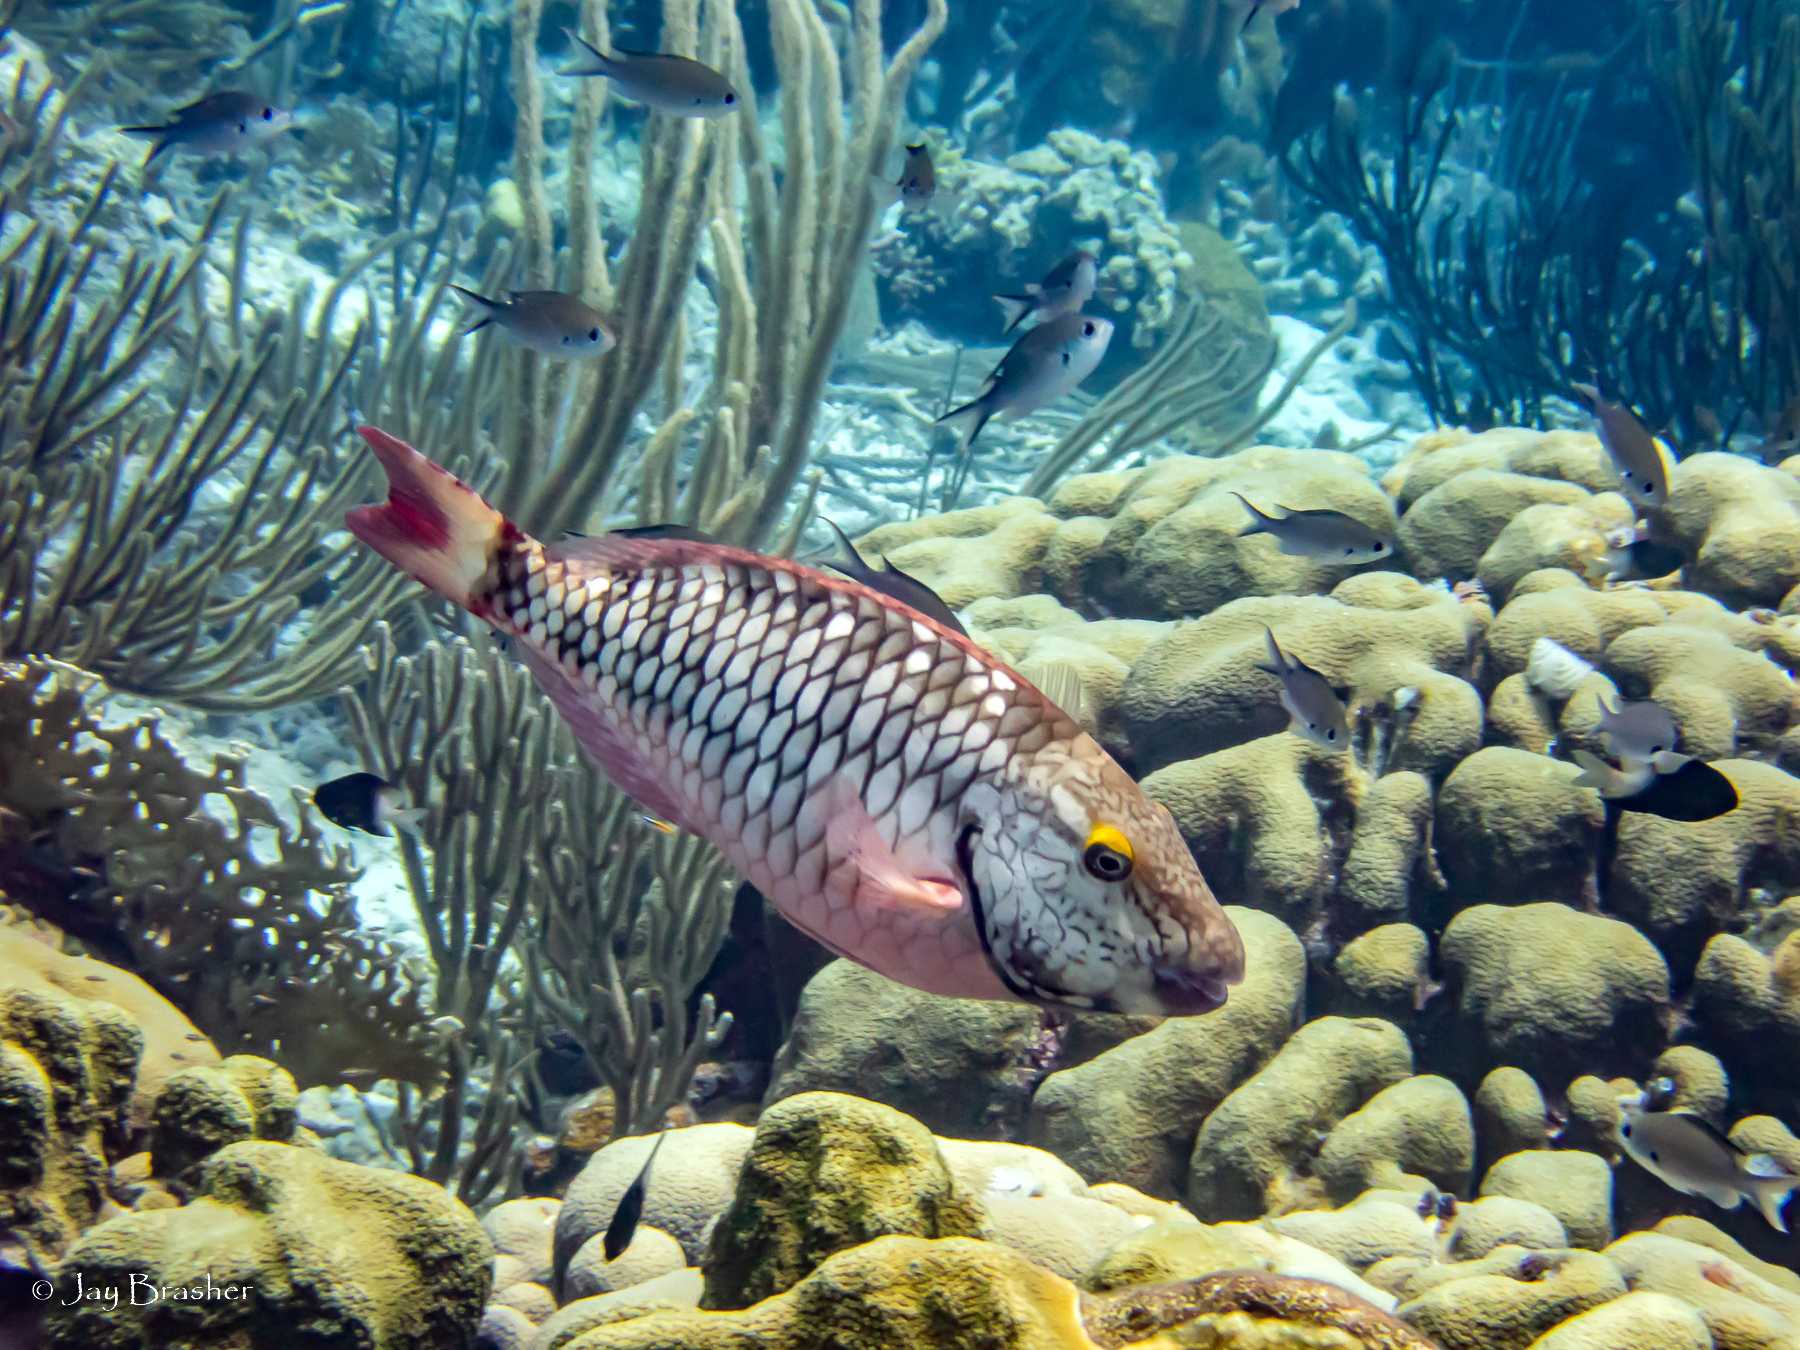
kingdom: Animalia
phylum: Chordata
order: Perciformes
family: Pomacentridae
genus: Chromis
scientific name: Chromis multilineata
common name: Brown chromis
